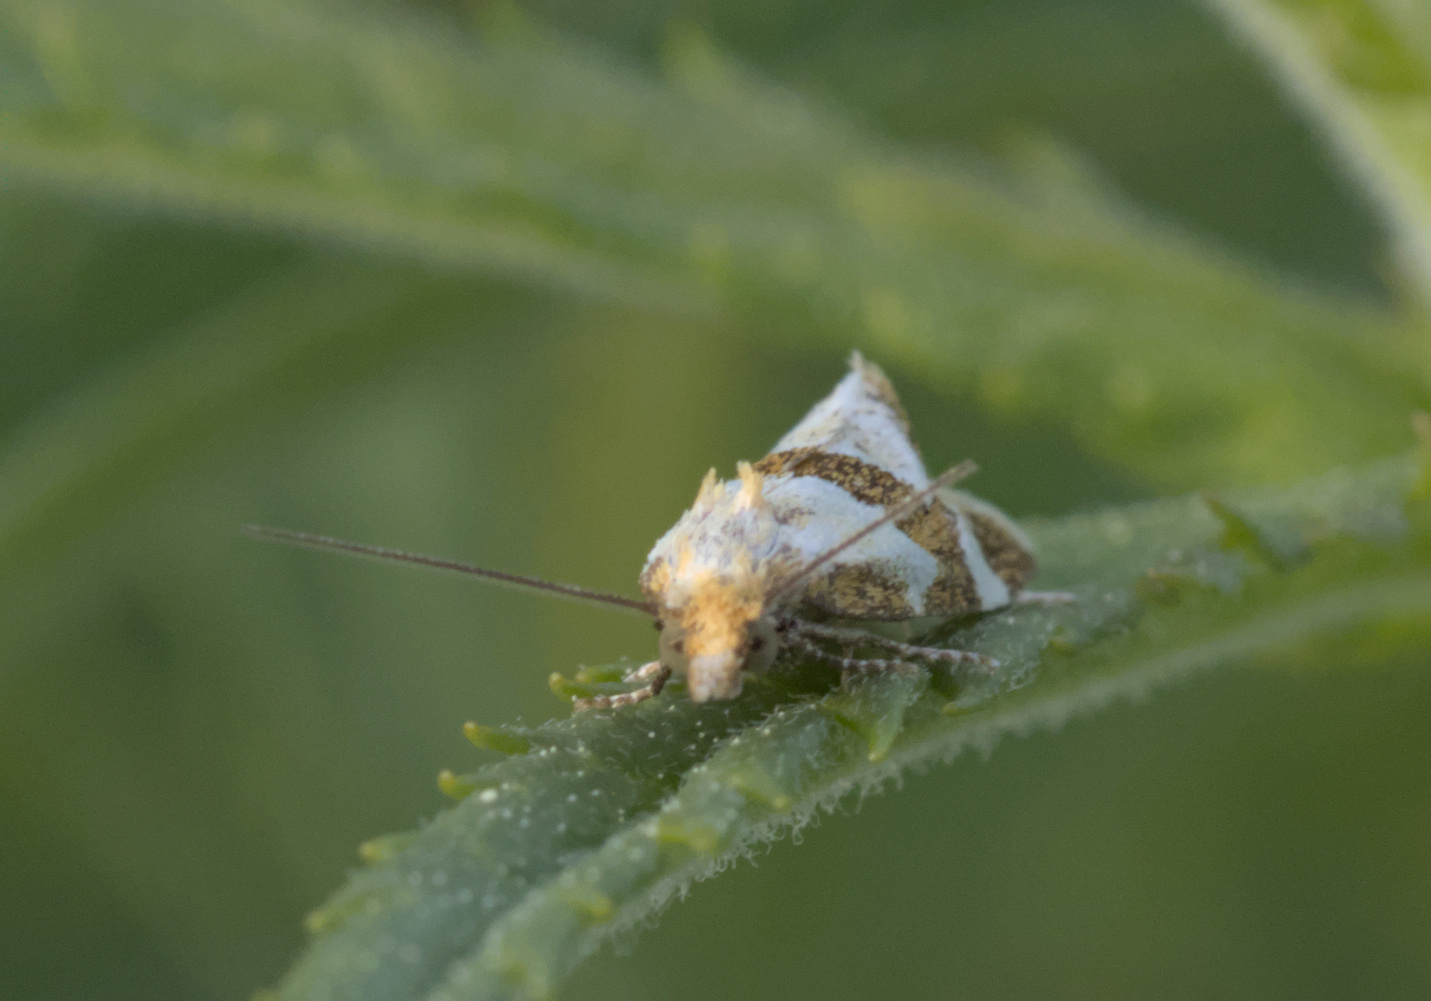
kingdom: Animalia
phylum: Arthropoda
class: Insecta
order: Lepidoptera
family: Tortricidae
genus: Aethes
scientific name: Aethes triangulana
